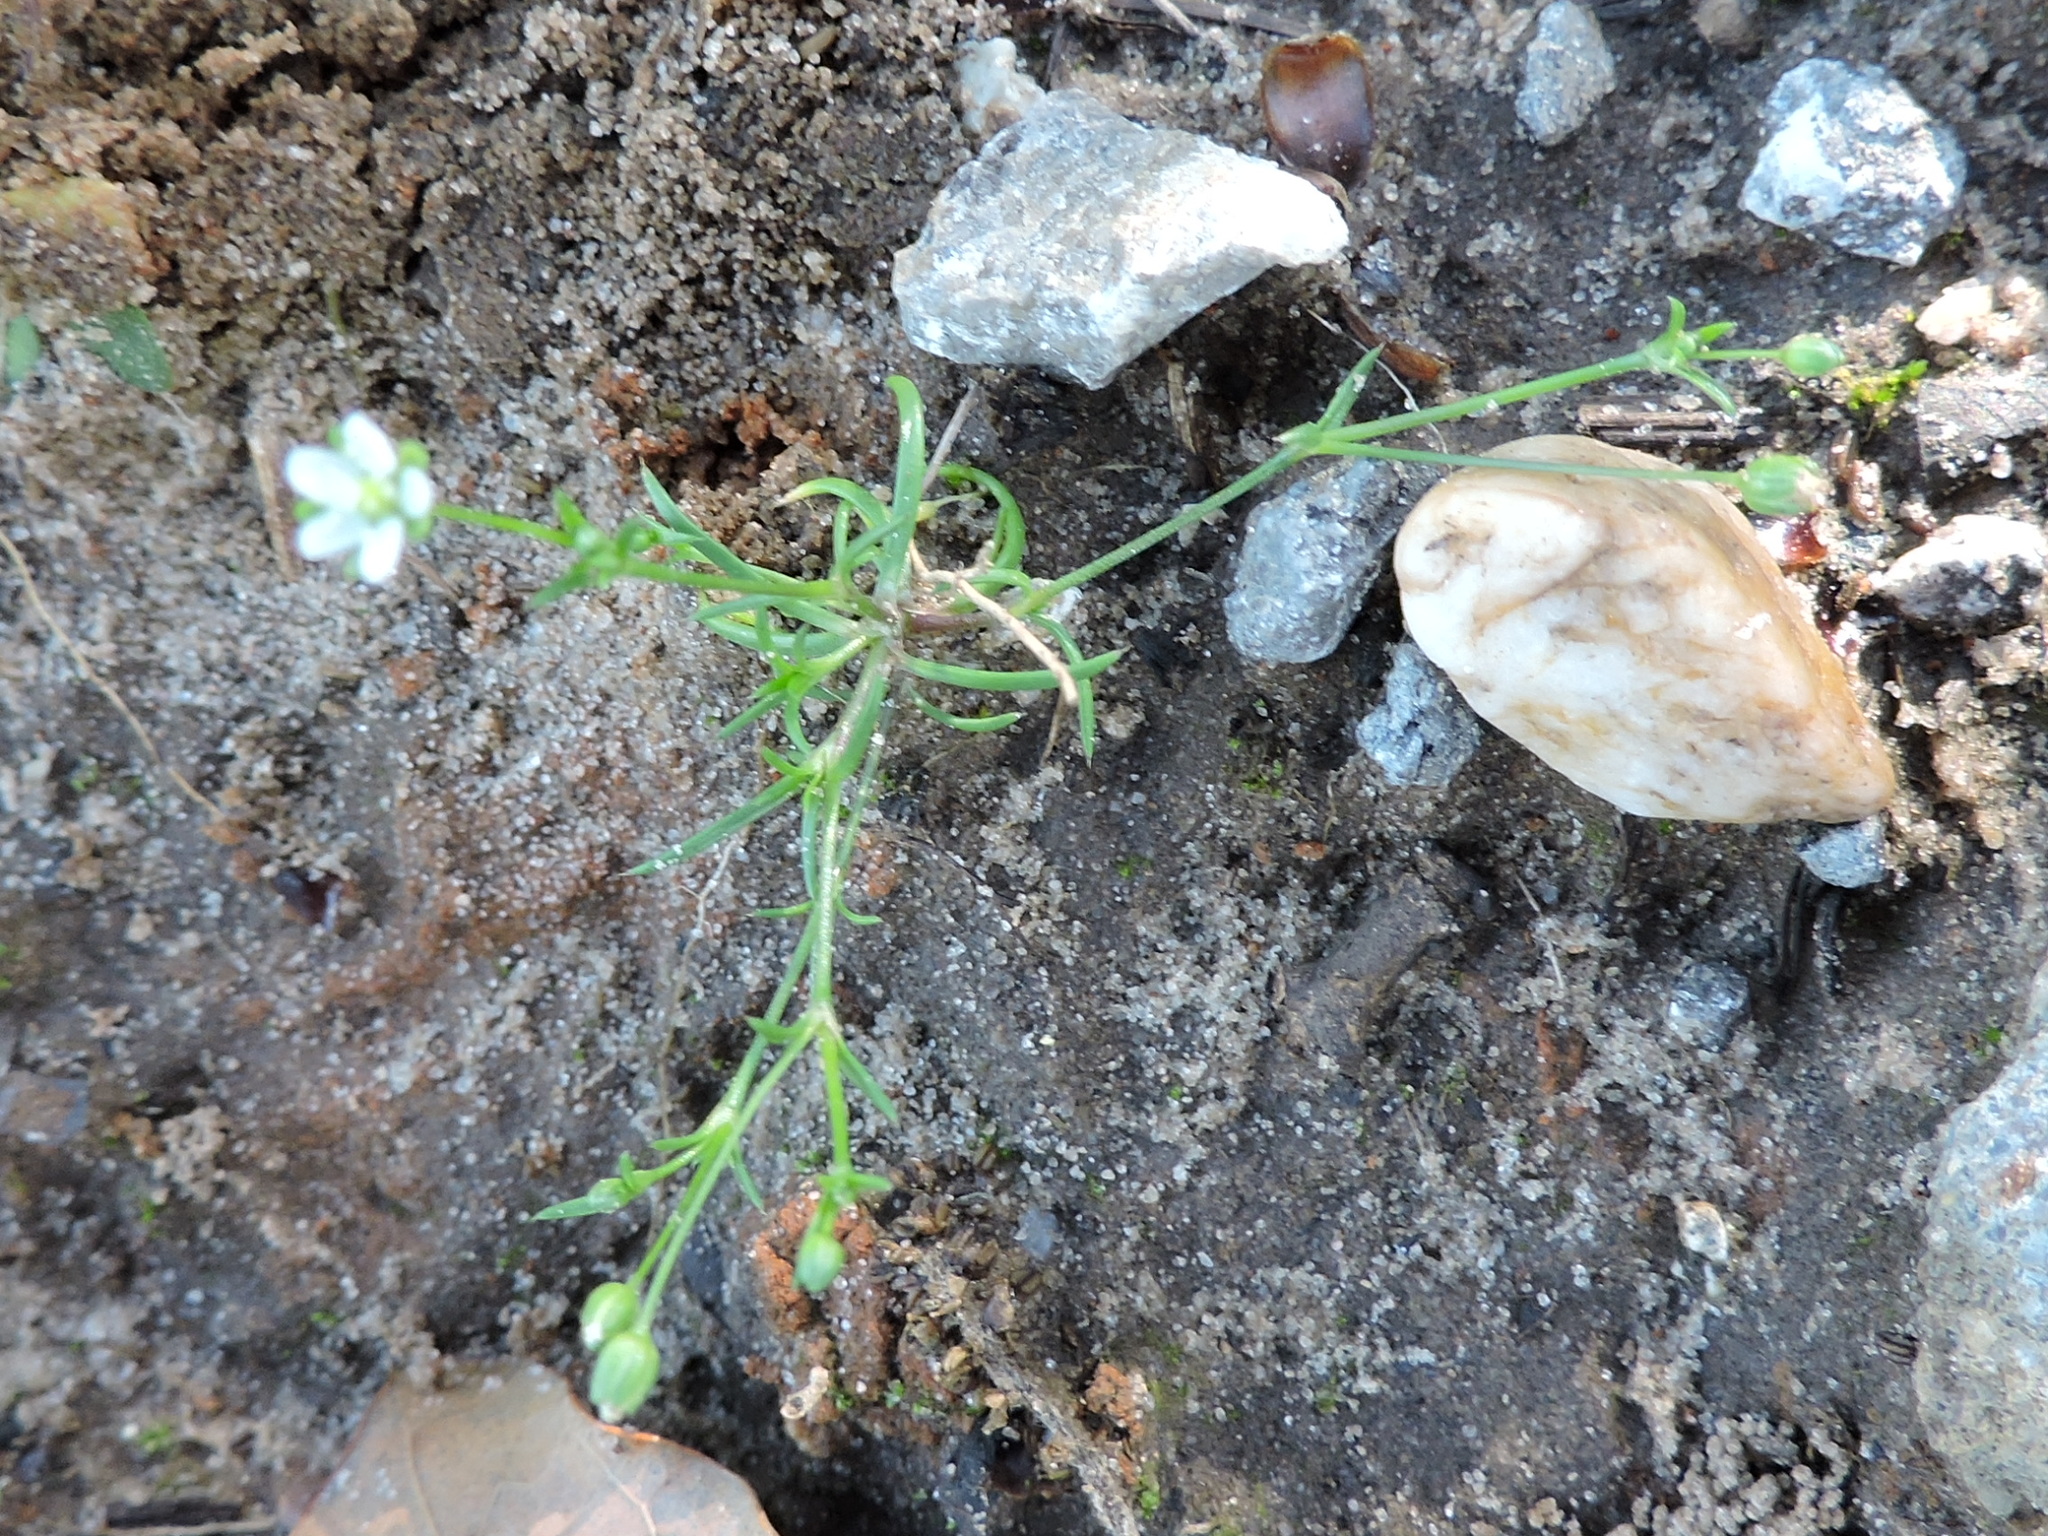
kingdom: Plantae
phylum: Tracheophyta
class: Magnoliopsida
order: Caryophyllales
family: Caryophyllaceae
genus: Sagina
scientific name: Sagina decumbens
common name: Decumbent pearlwort
